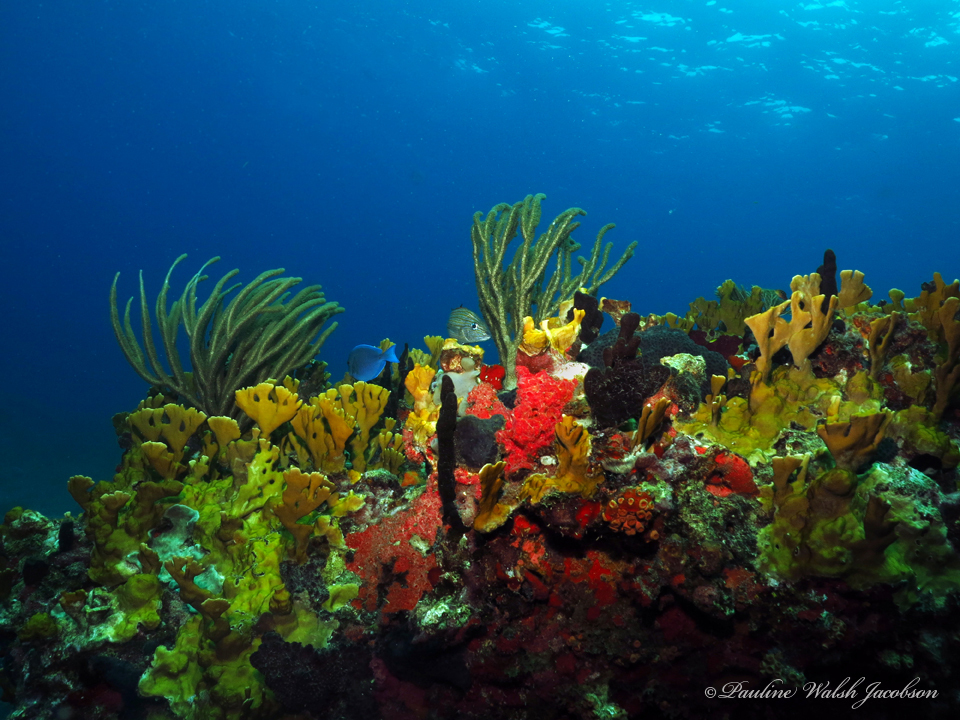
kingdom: Animalia
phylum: Cnidaria
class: Hydrozoa
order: Anthoathecata
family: Milleporidae
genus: Millepora
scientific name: Millepora complanata
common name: Bladed fire coral
